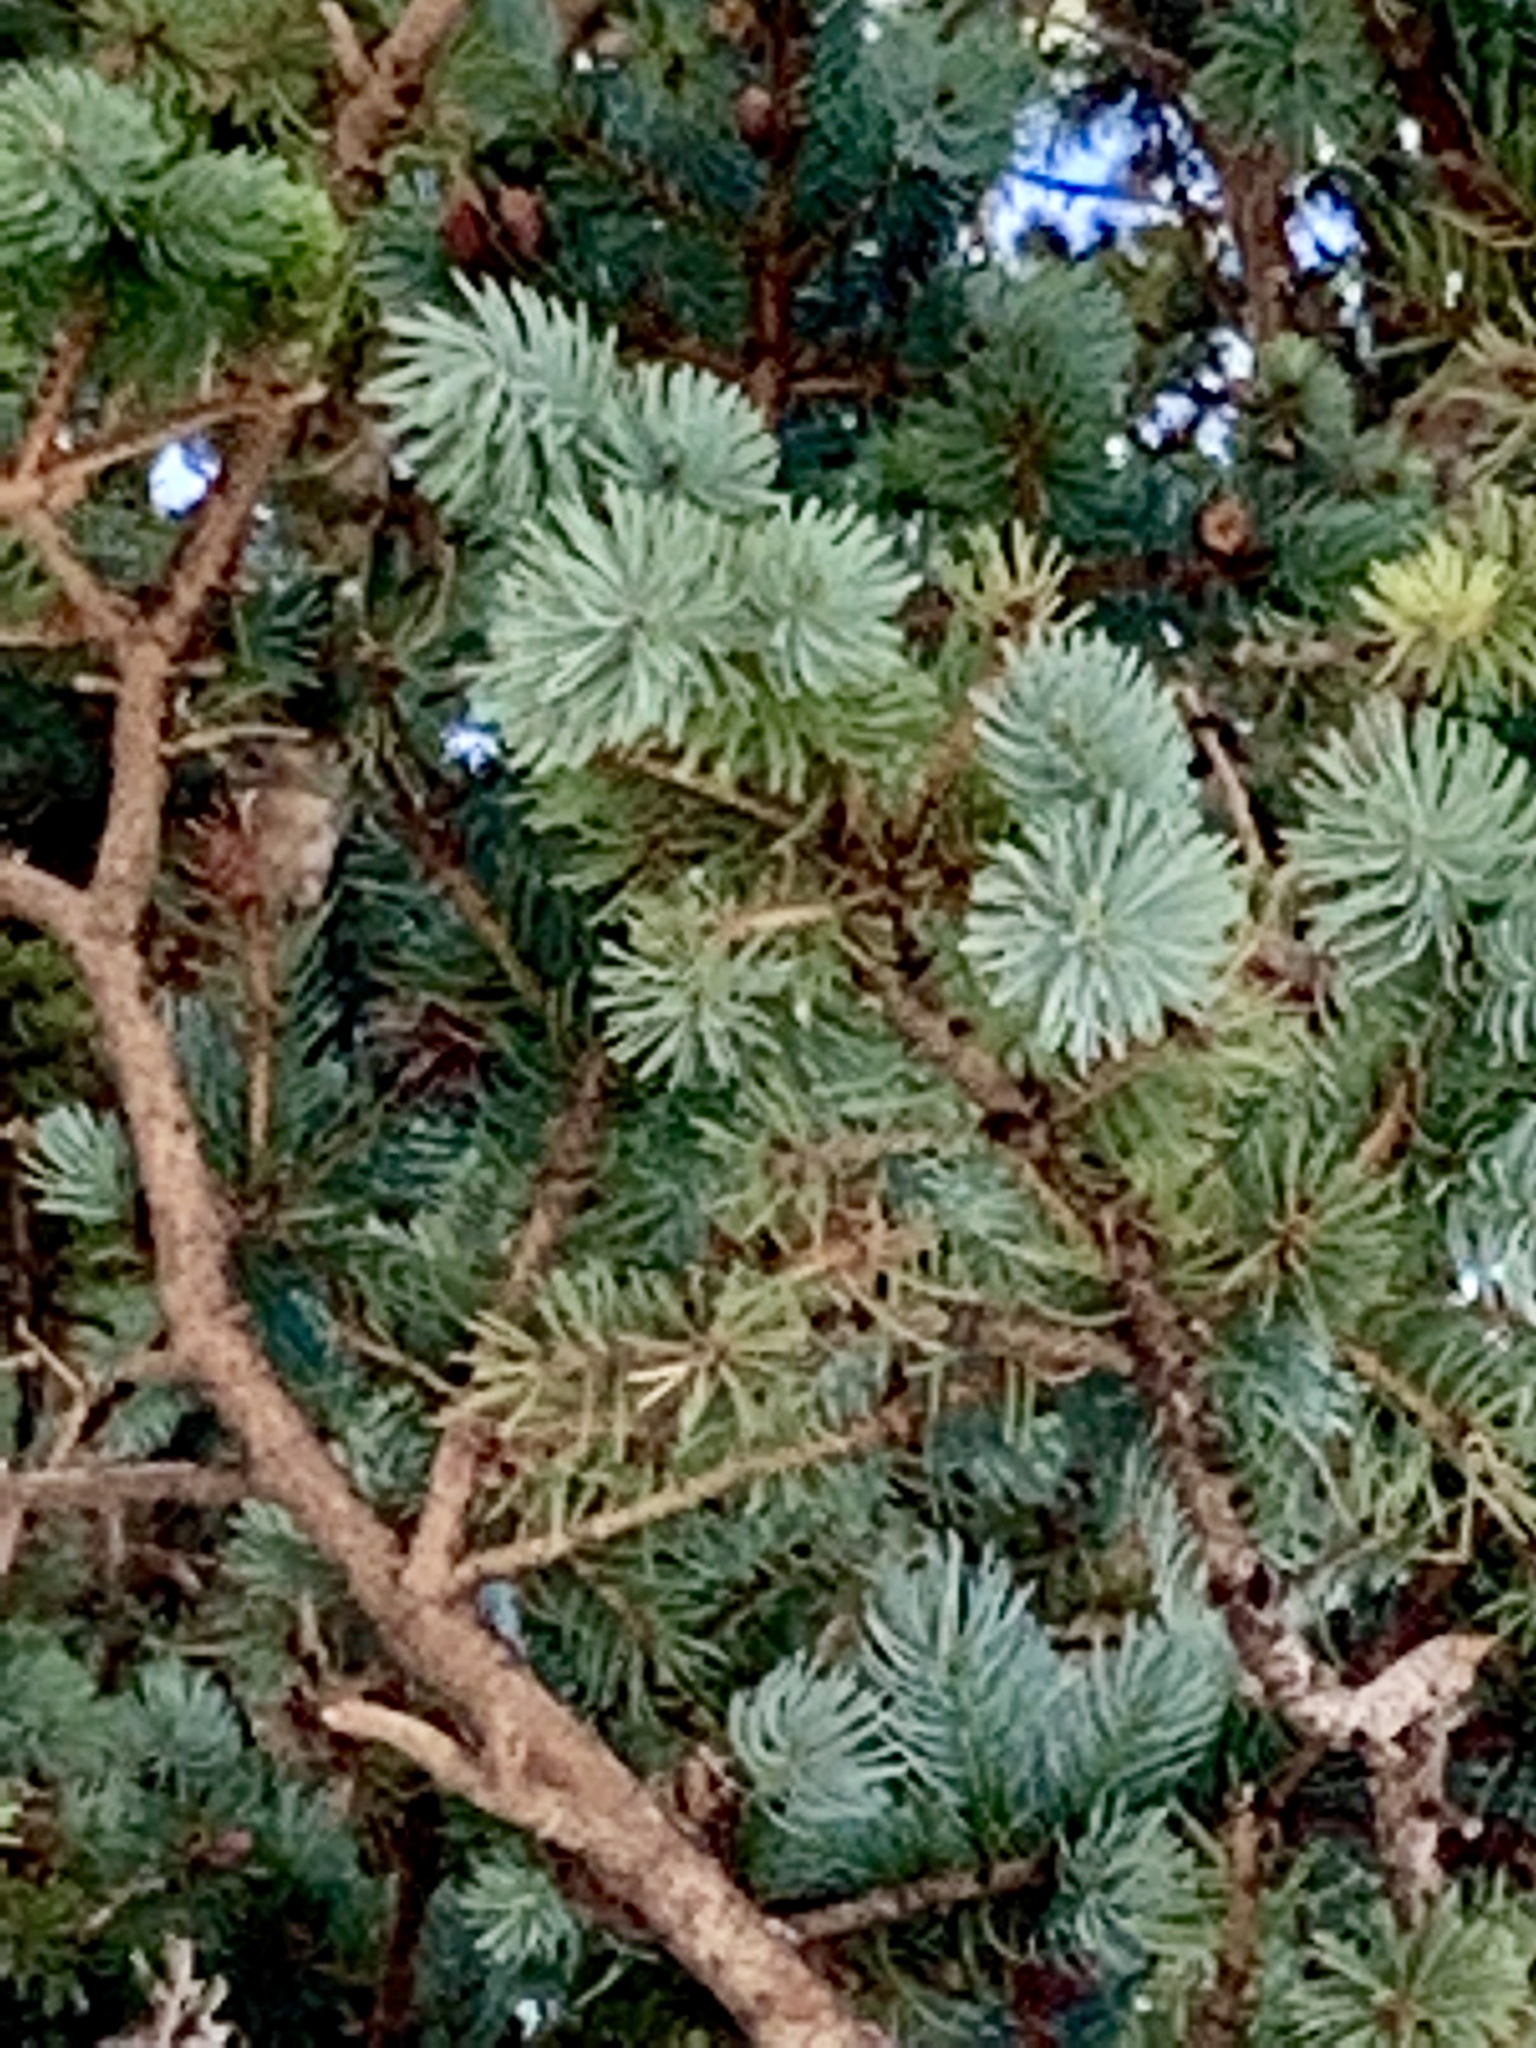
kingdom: Plantae
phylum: Tracheophyta
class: Pinopsida
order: Pinales
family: Pinaceae
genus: Picea
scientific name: Picea pungens
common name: Colorado spruce
